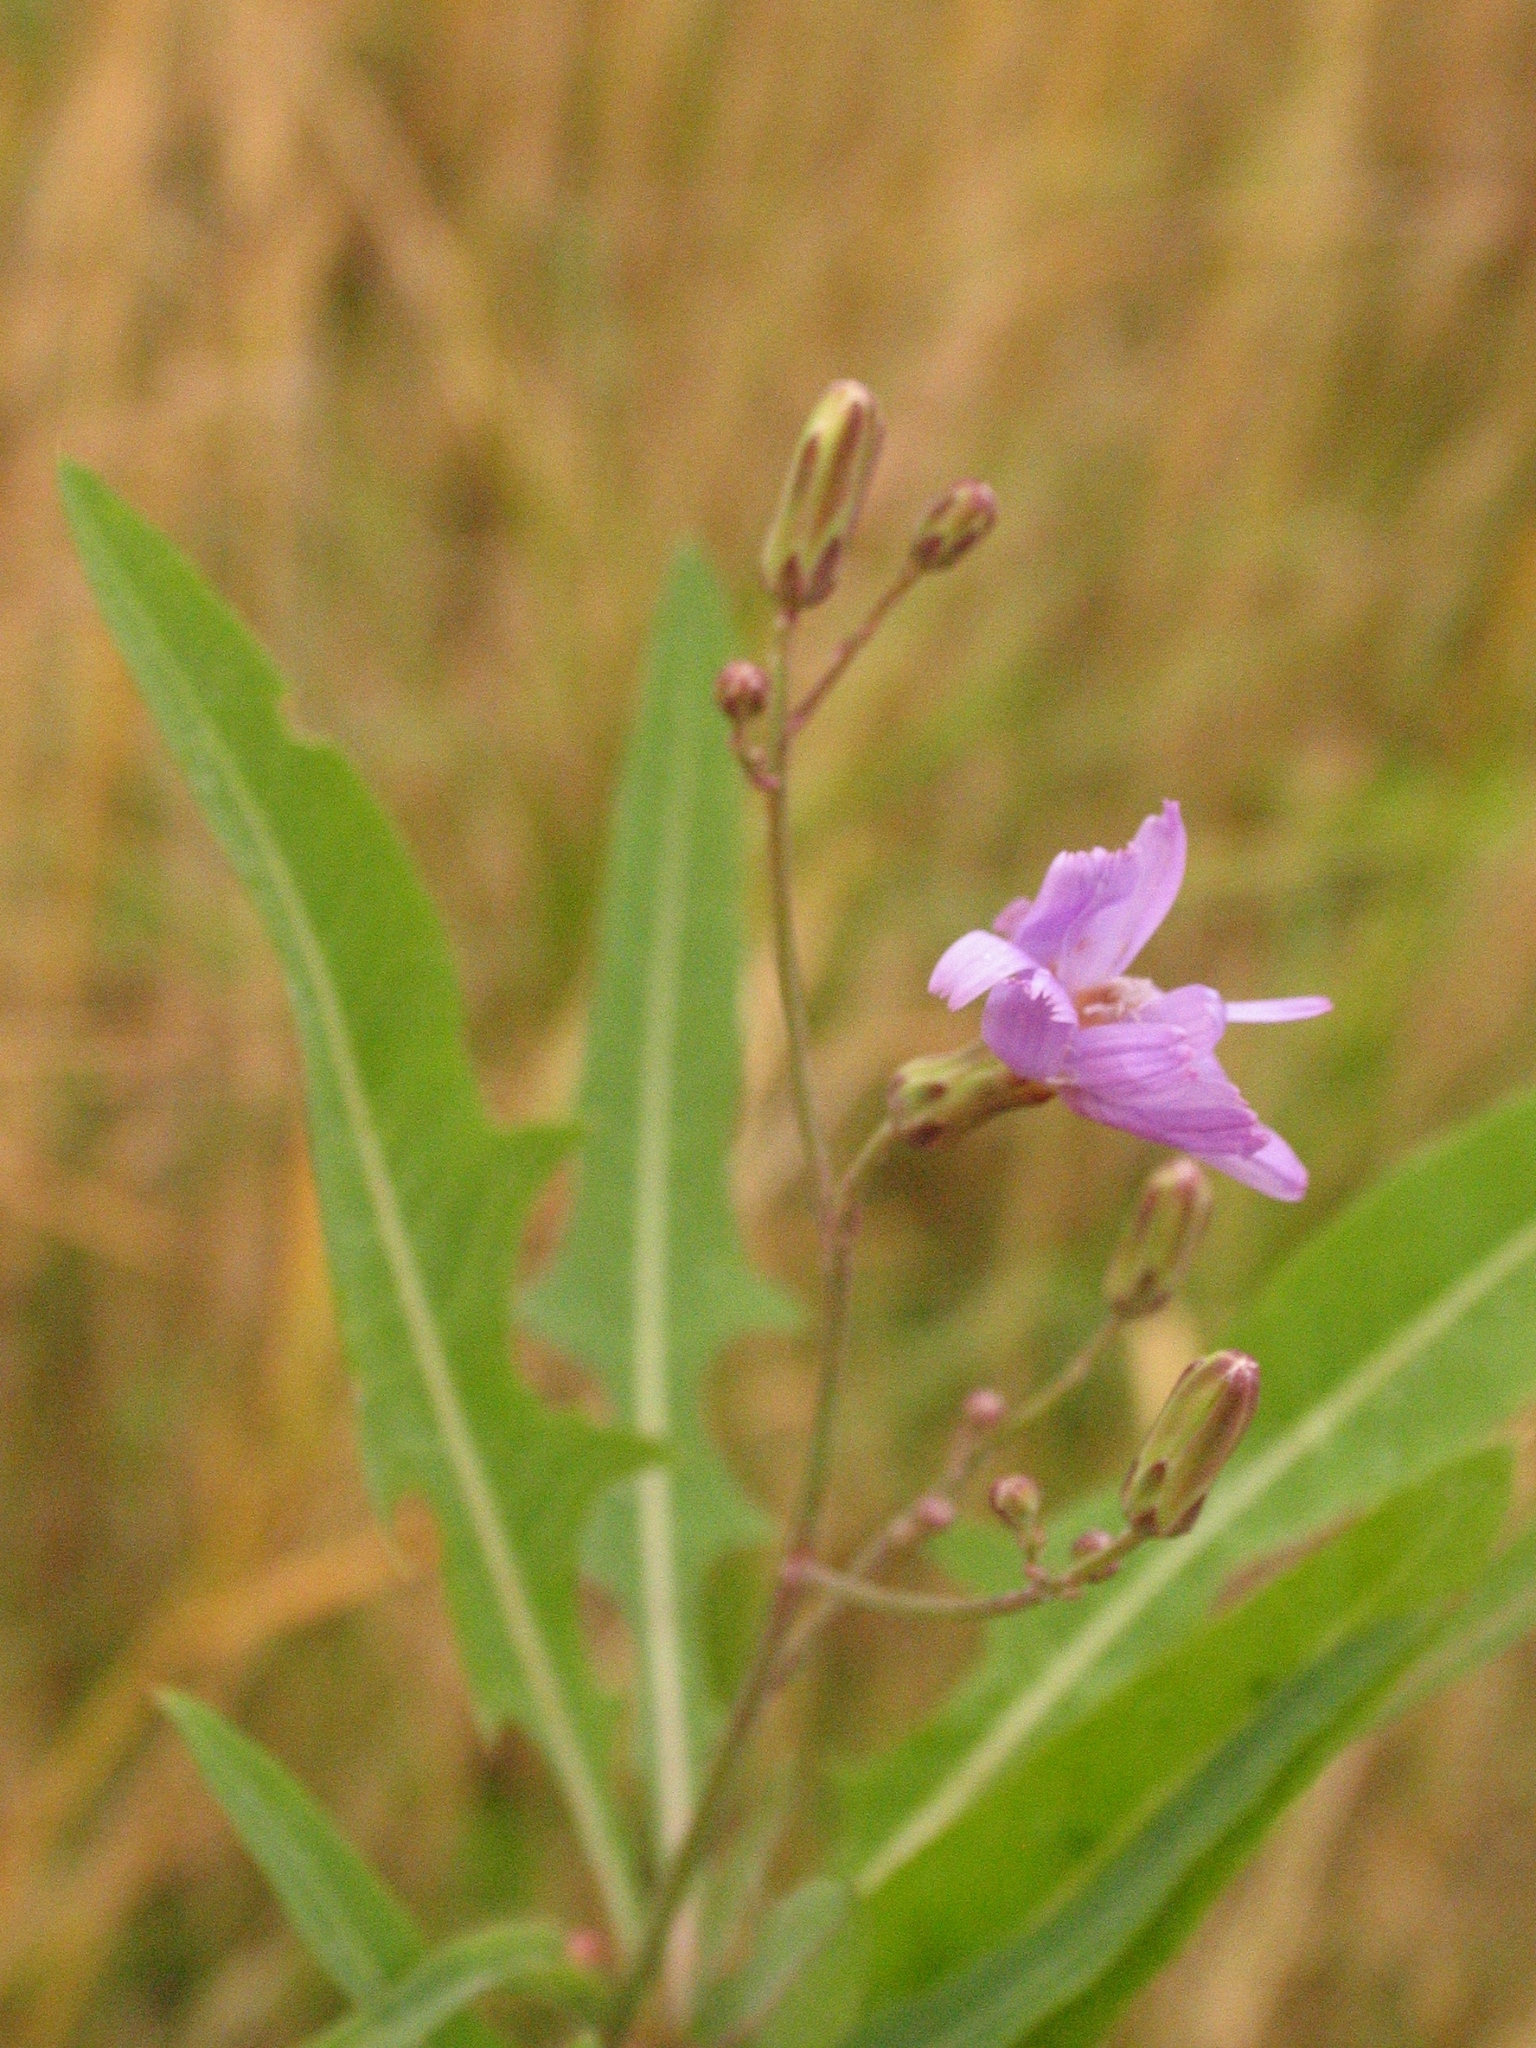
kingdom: Plantae
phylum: Tracheophyta
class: Magnoliopsida
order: Asterales
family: Asteraceae
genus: Lactuca
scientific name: Lactuca tatarica
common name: Blue lettuce
